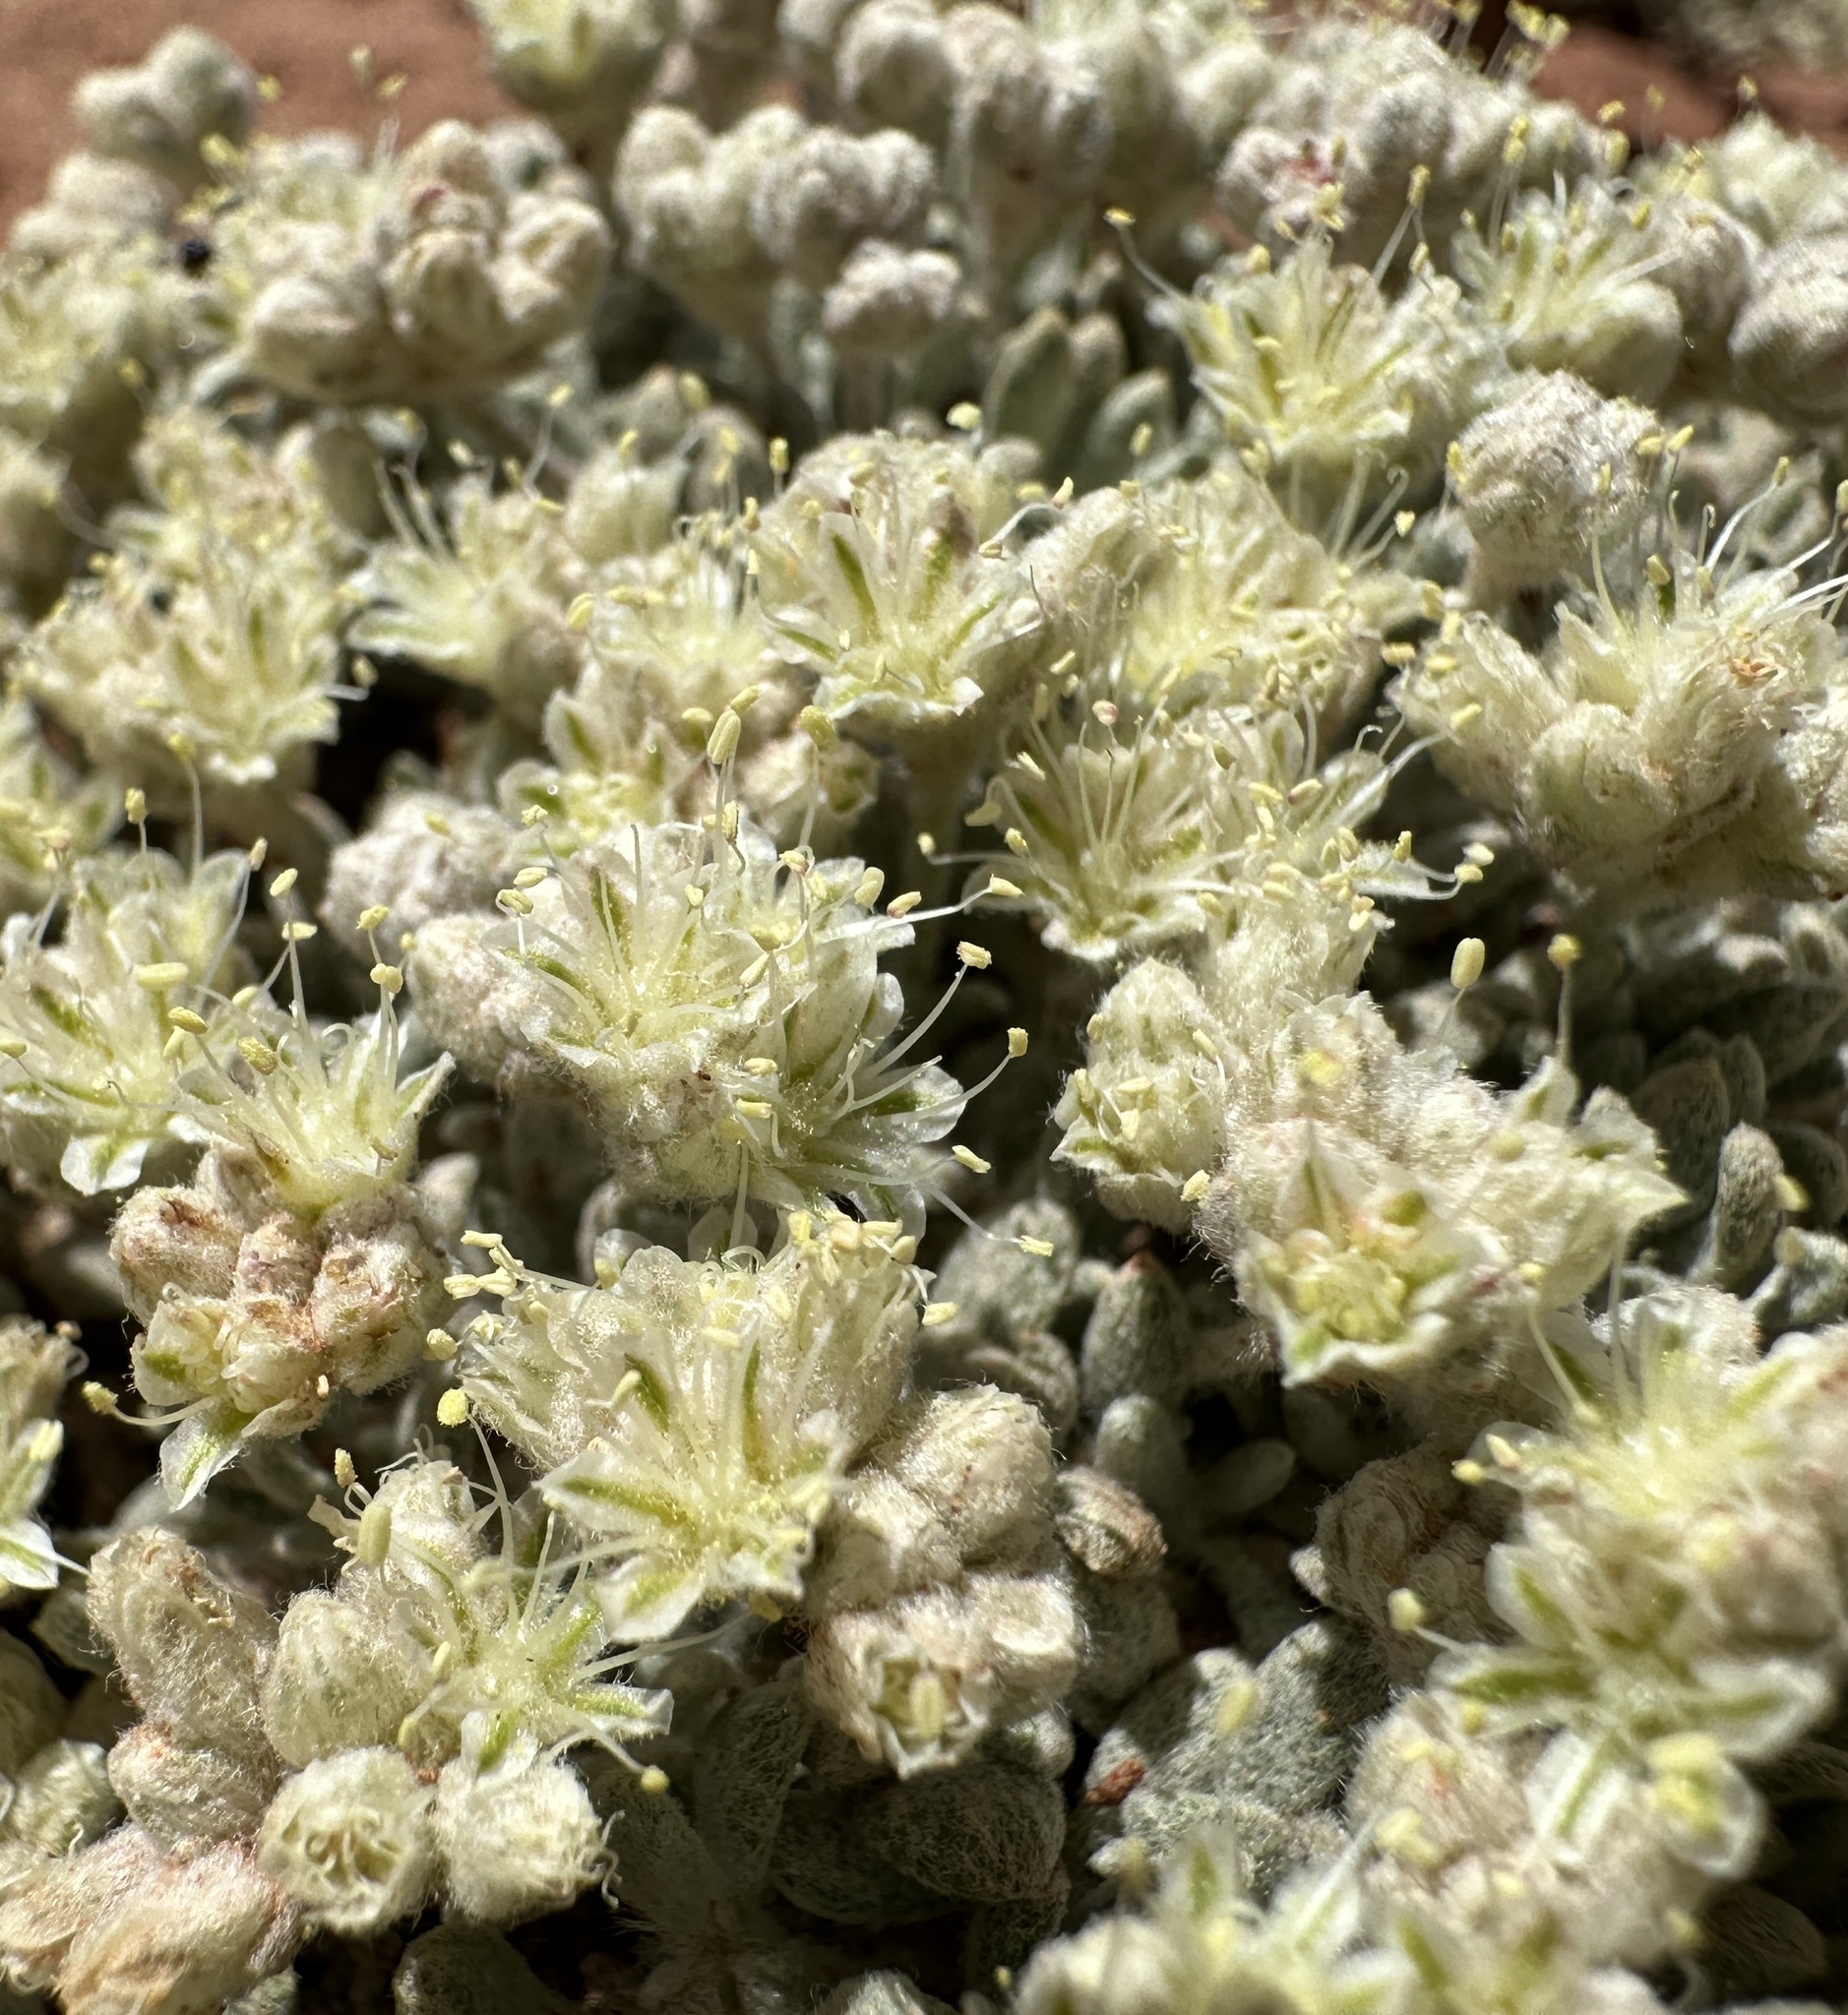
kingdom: Plantae
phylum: Tracheophyta
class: Magnoliopsida
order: Caryophyllales
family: Polygonaceae
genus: Eriogonum
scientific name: Eriogonum shockleyi
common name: Shockley's wild buckwheat
